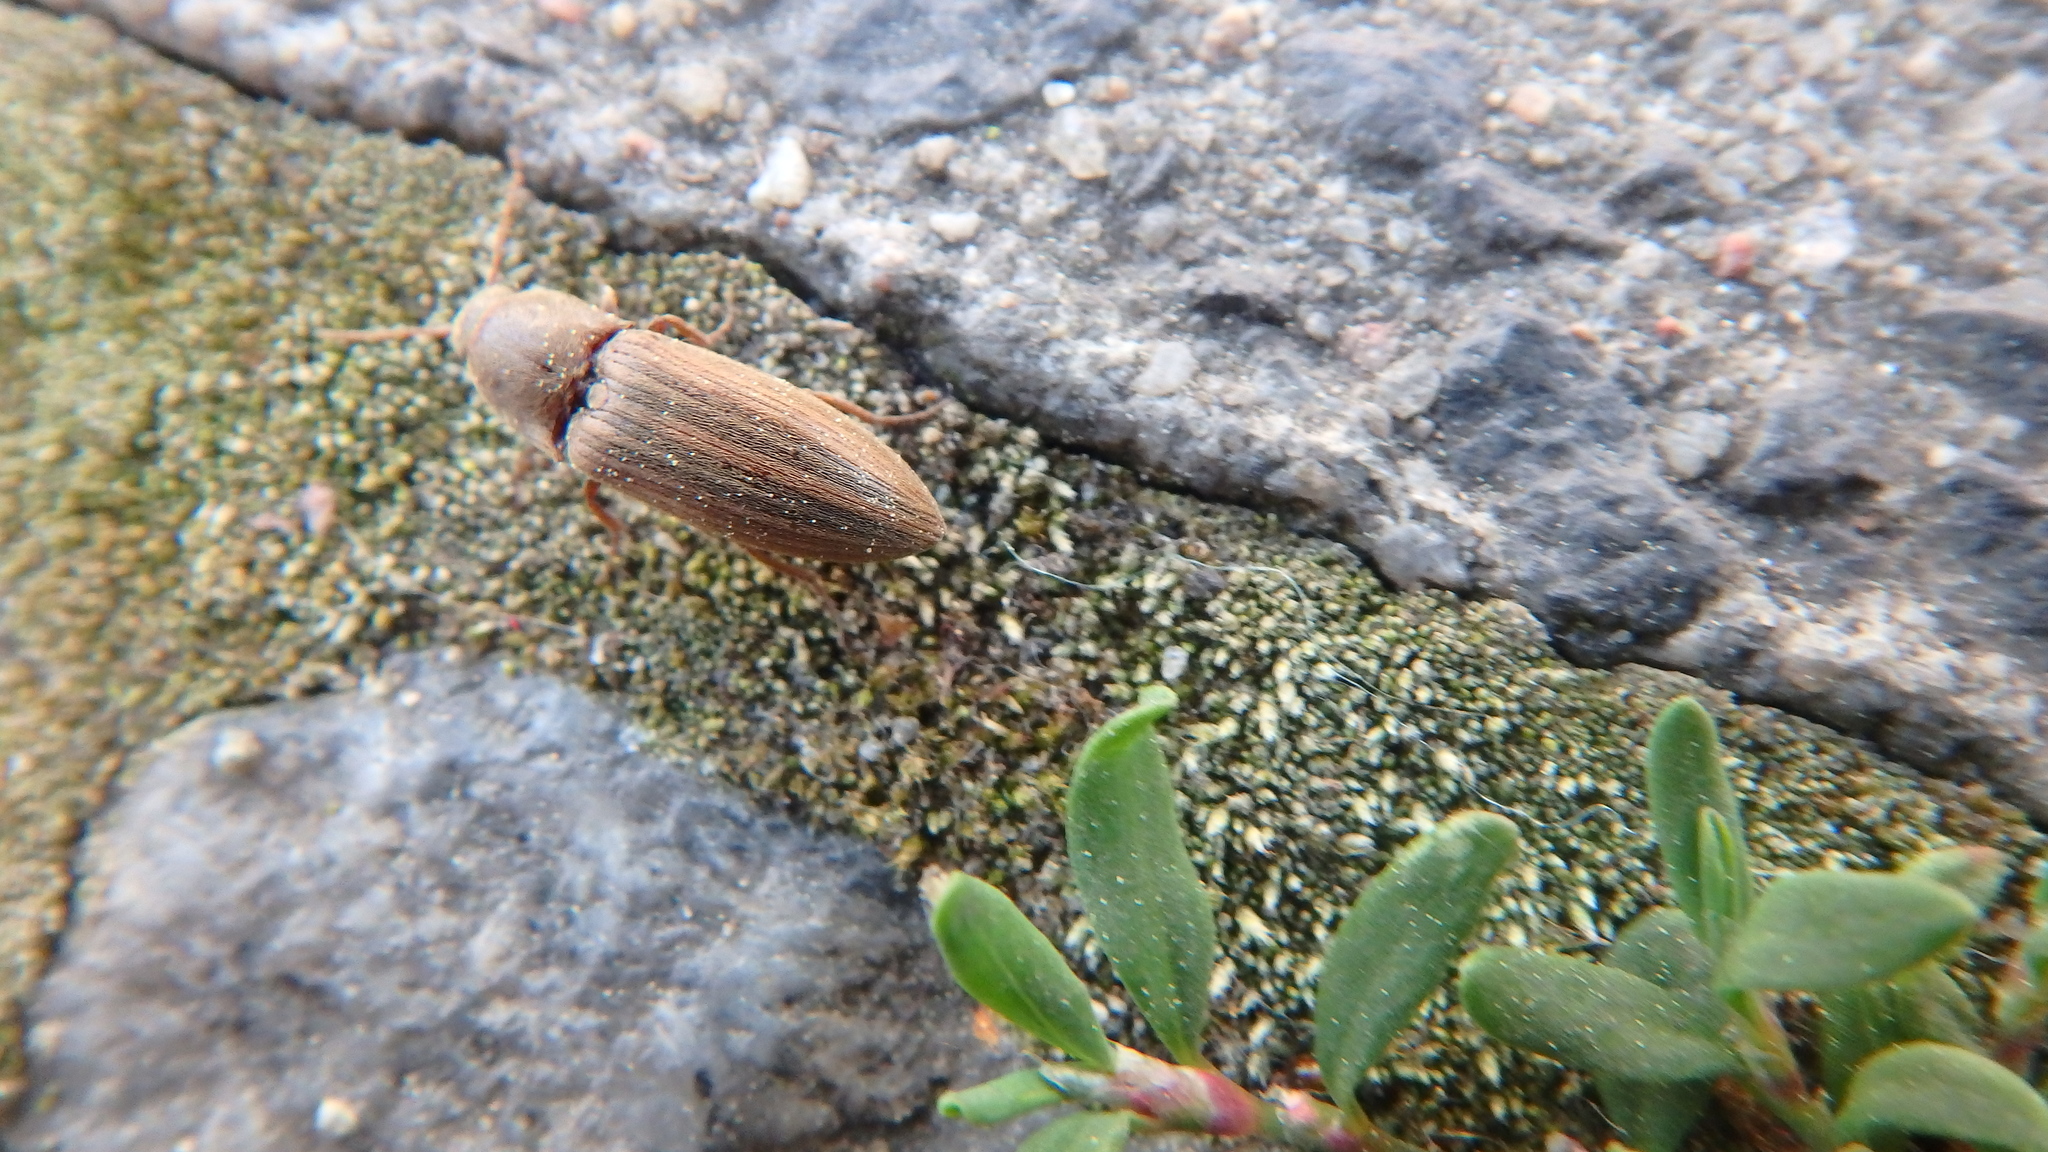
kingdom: Animalia
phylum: Arthropoda
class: Insecta
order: Coleoptera
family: Elateridae
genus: Agriotes
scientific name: Agriotes lineatus
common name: Lined click beetle
